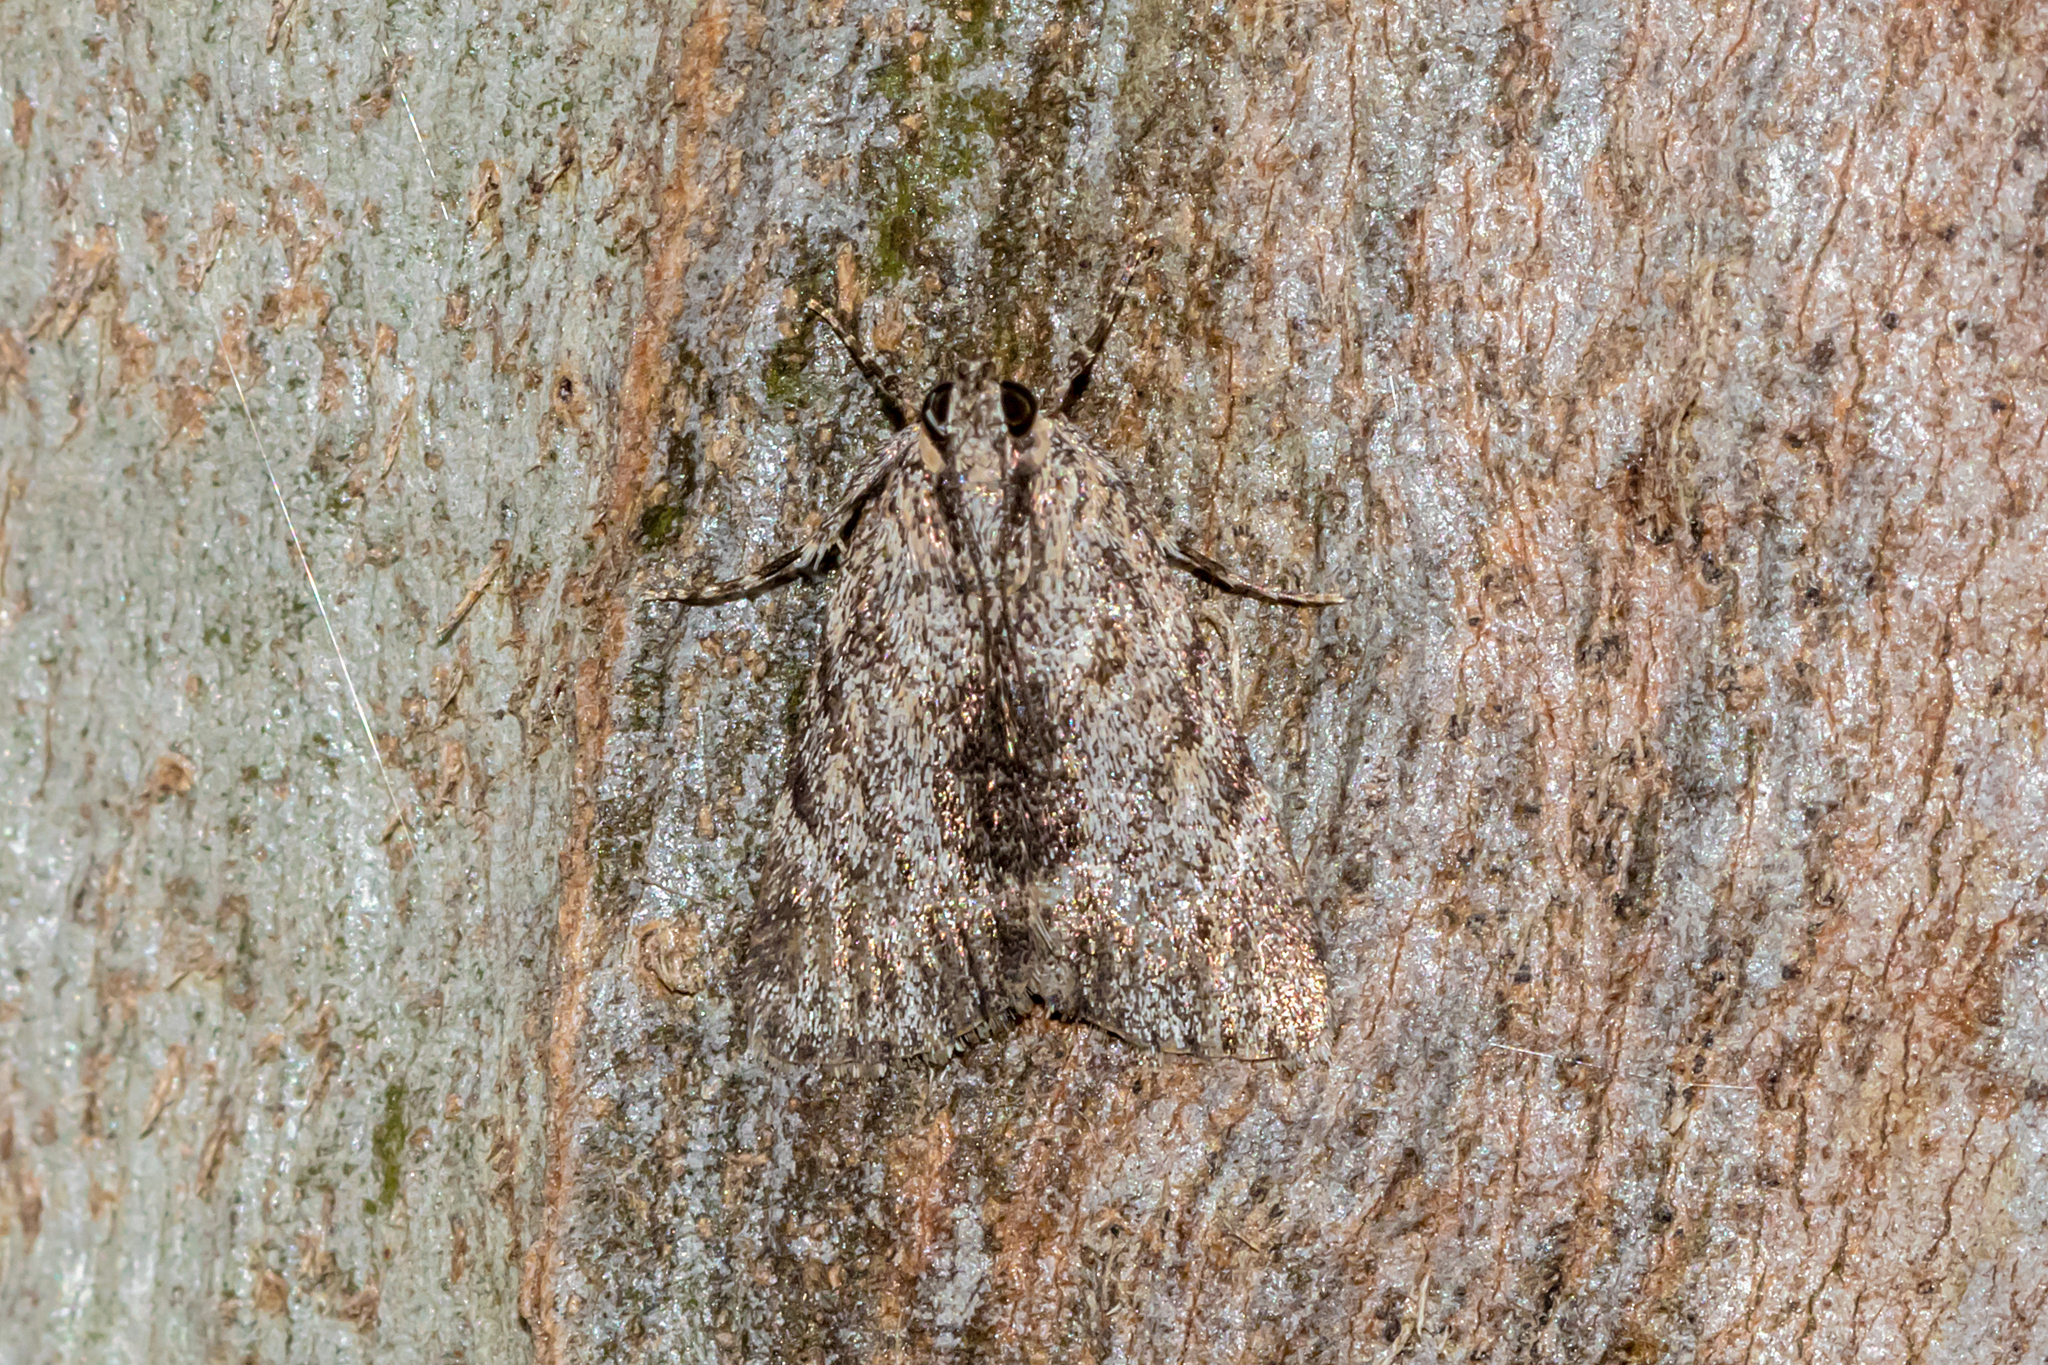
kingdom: Animalia
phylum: Arthropoda
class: Insecta
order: Lepidoptera
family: Pyralidae
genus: Spectrotrota
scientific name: Spectrotrota fimbrialis
